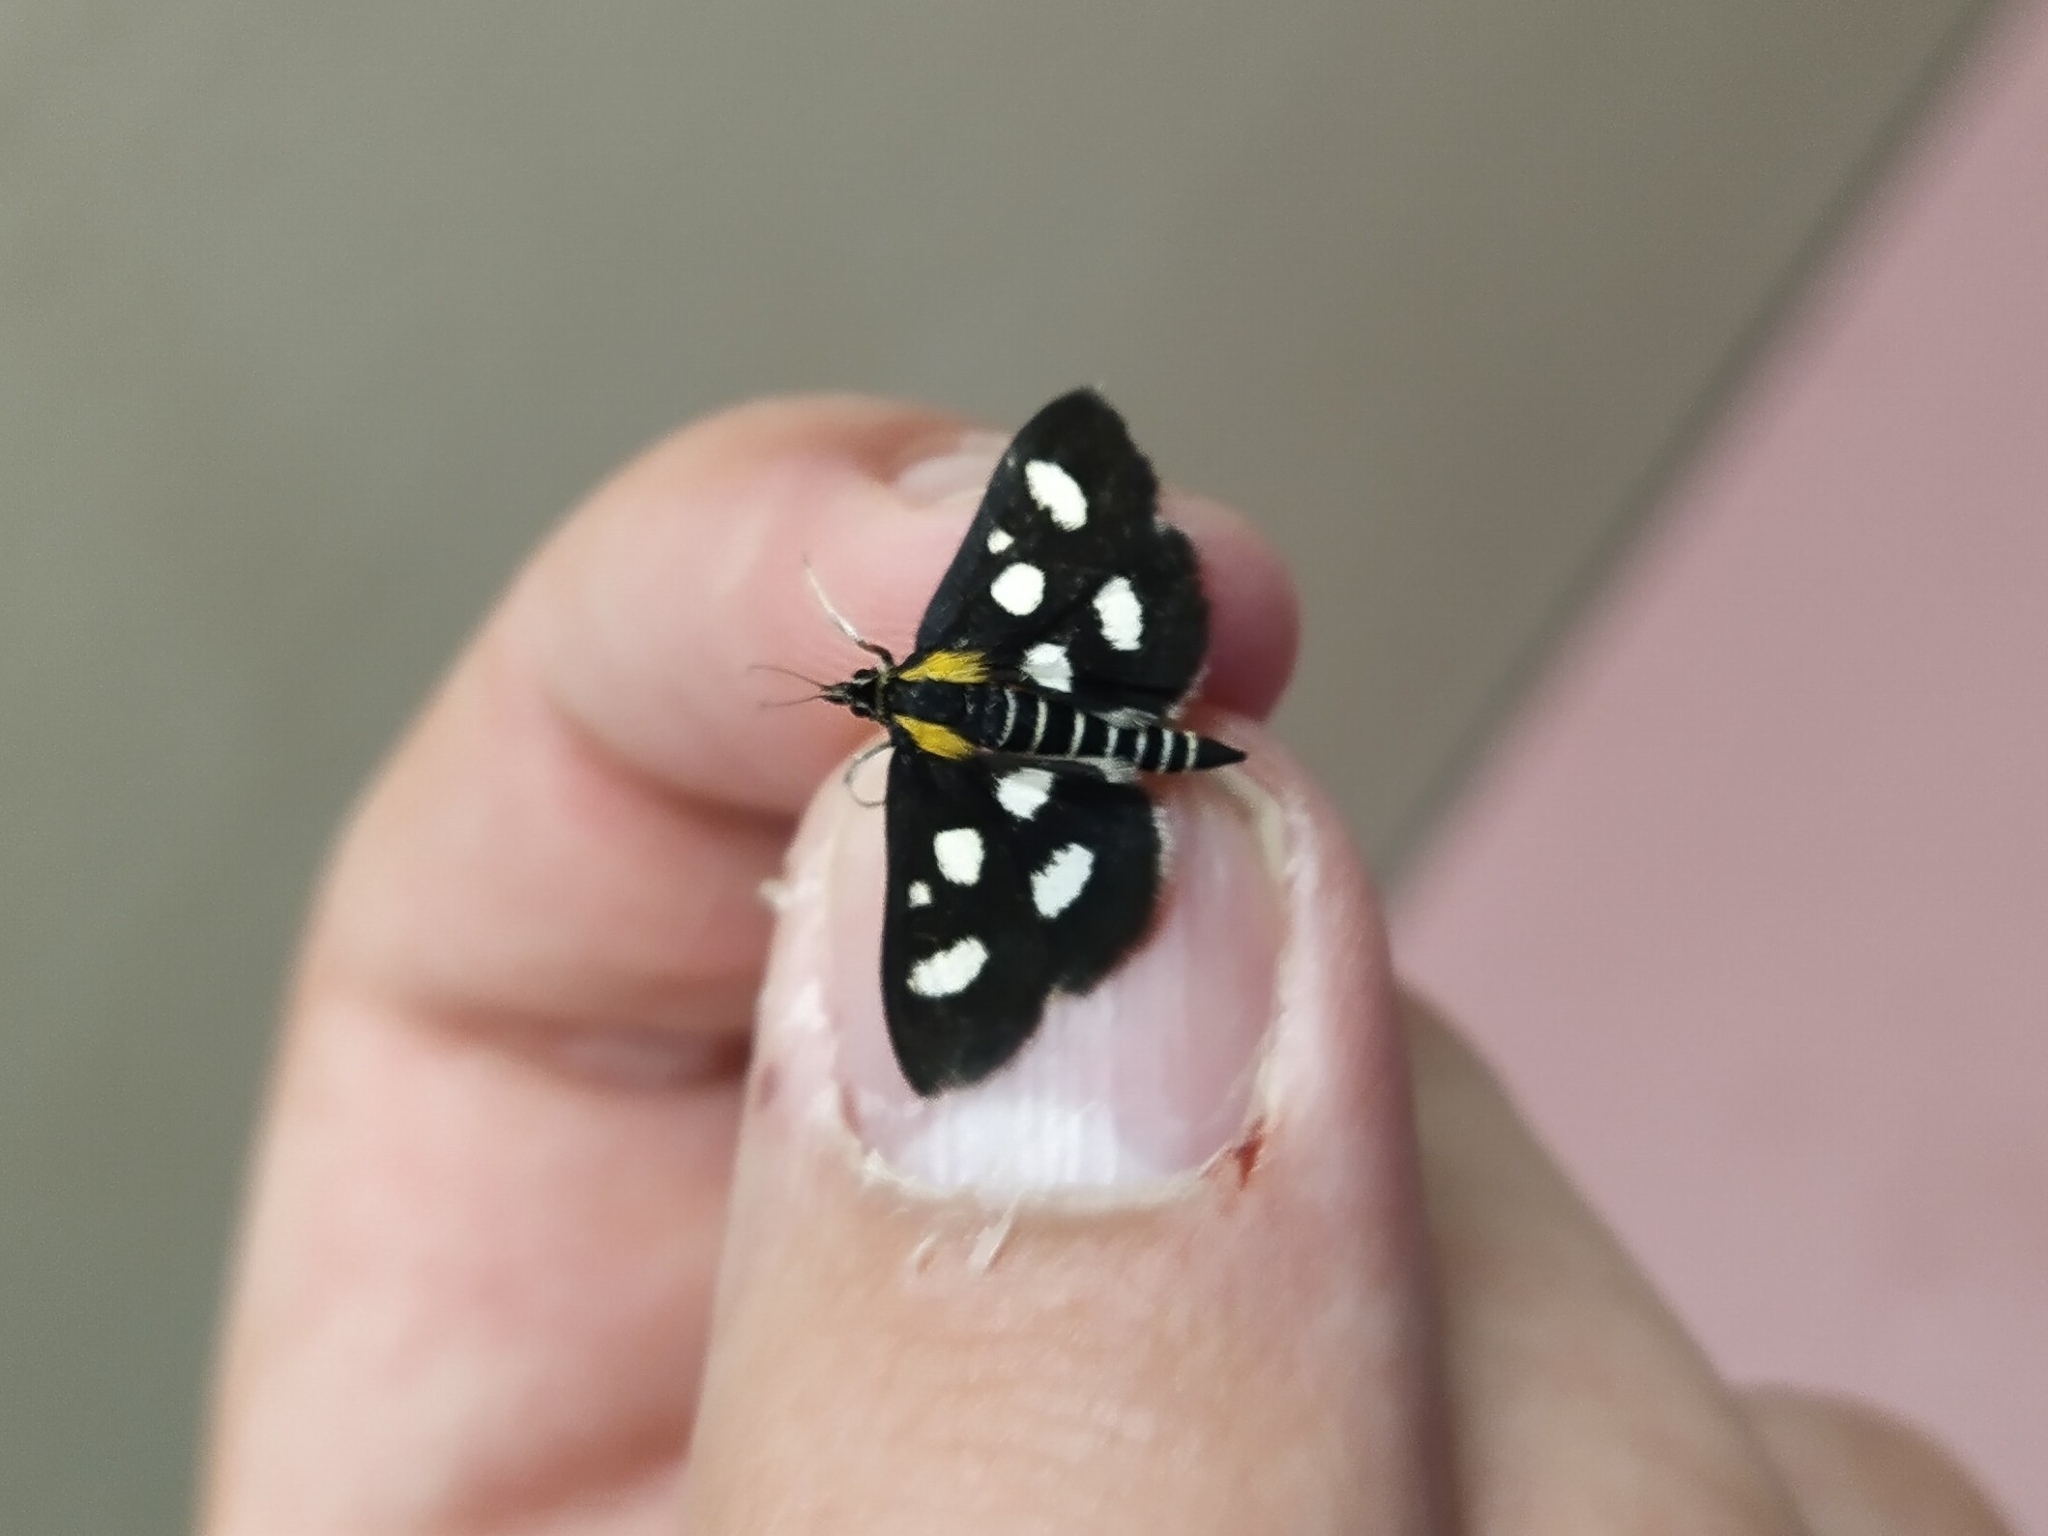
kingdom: Animalia
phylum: Arthropoda
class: Insecta
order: Lepidoptera
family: Crambidae
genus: Anania
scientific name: Anania funebris
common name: White-spotted sable moth
